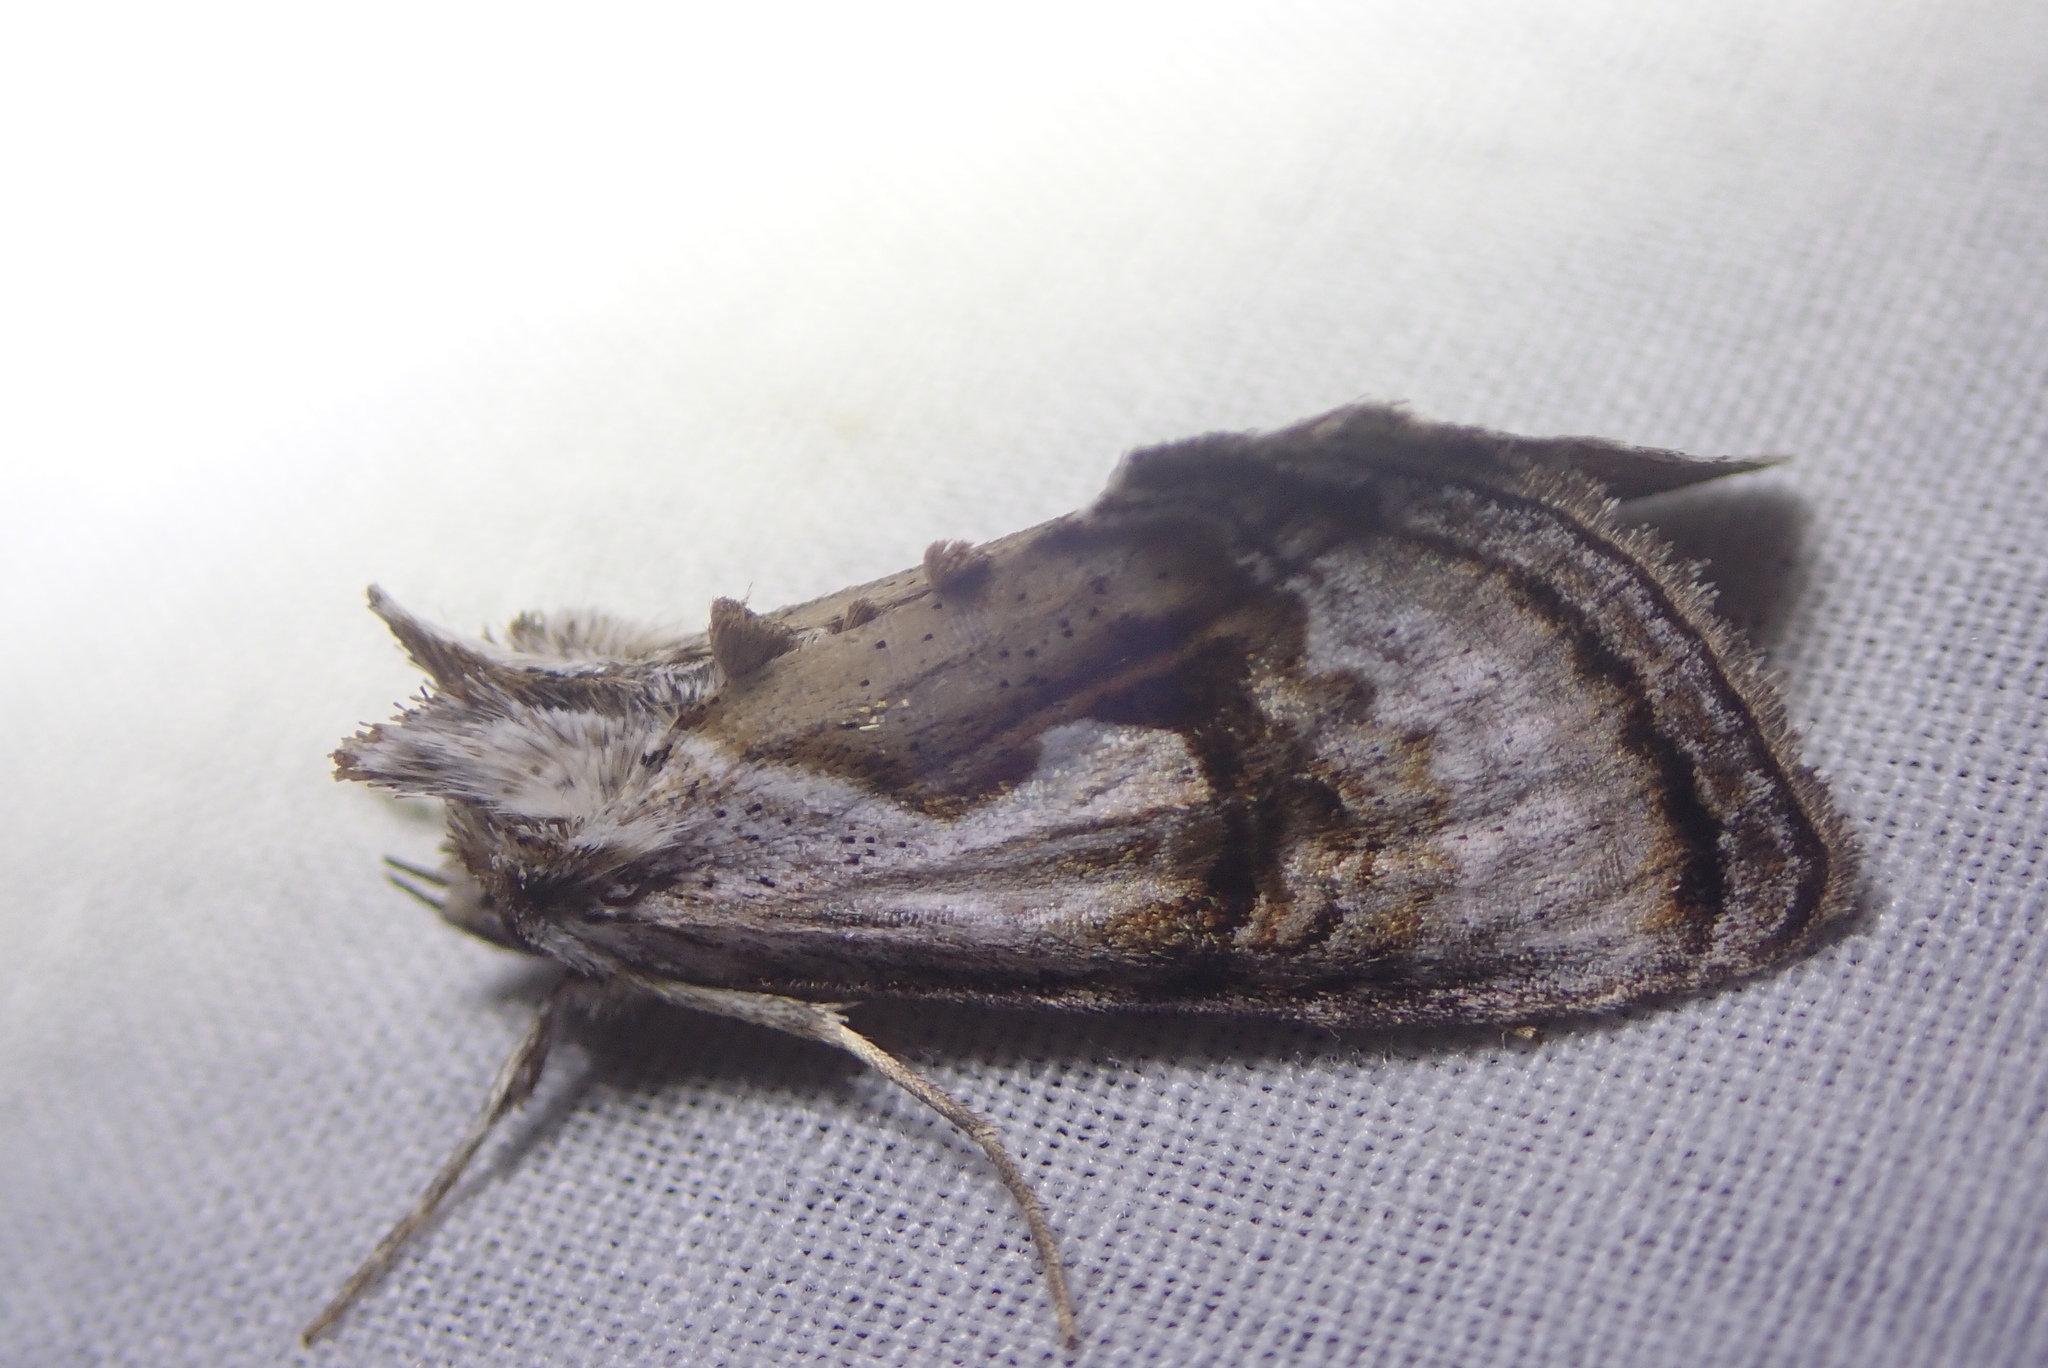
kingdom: Animalia
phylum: Arthropoda
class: Insecta
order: Lepidoptera
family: Noctuidae
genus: Chrysanympha
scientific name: Chrysanympha formosa
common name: Formosa looper moth
